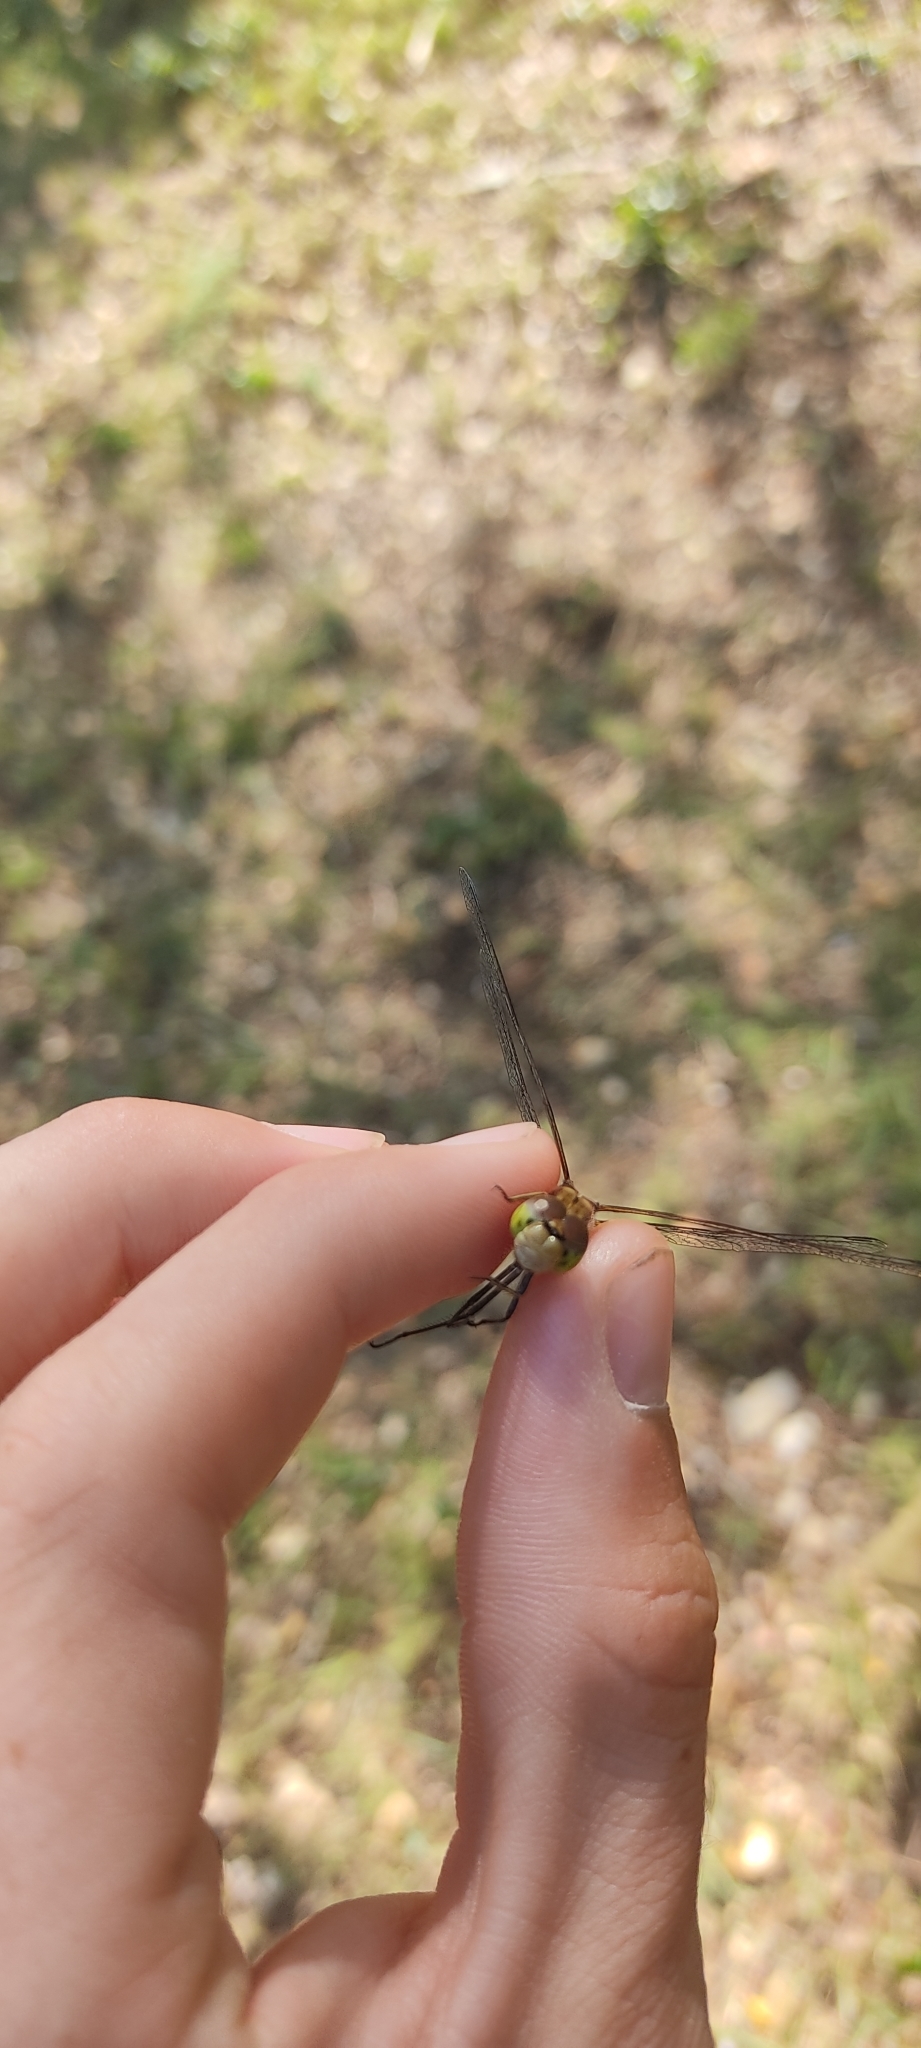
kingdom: Animalia
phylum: Arthropoda
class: Insecta
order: Odonata
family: Libellulidae
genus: Sympetrum
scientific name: Sympetrum striolatum
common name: Common darter
